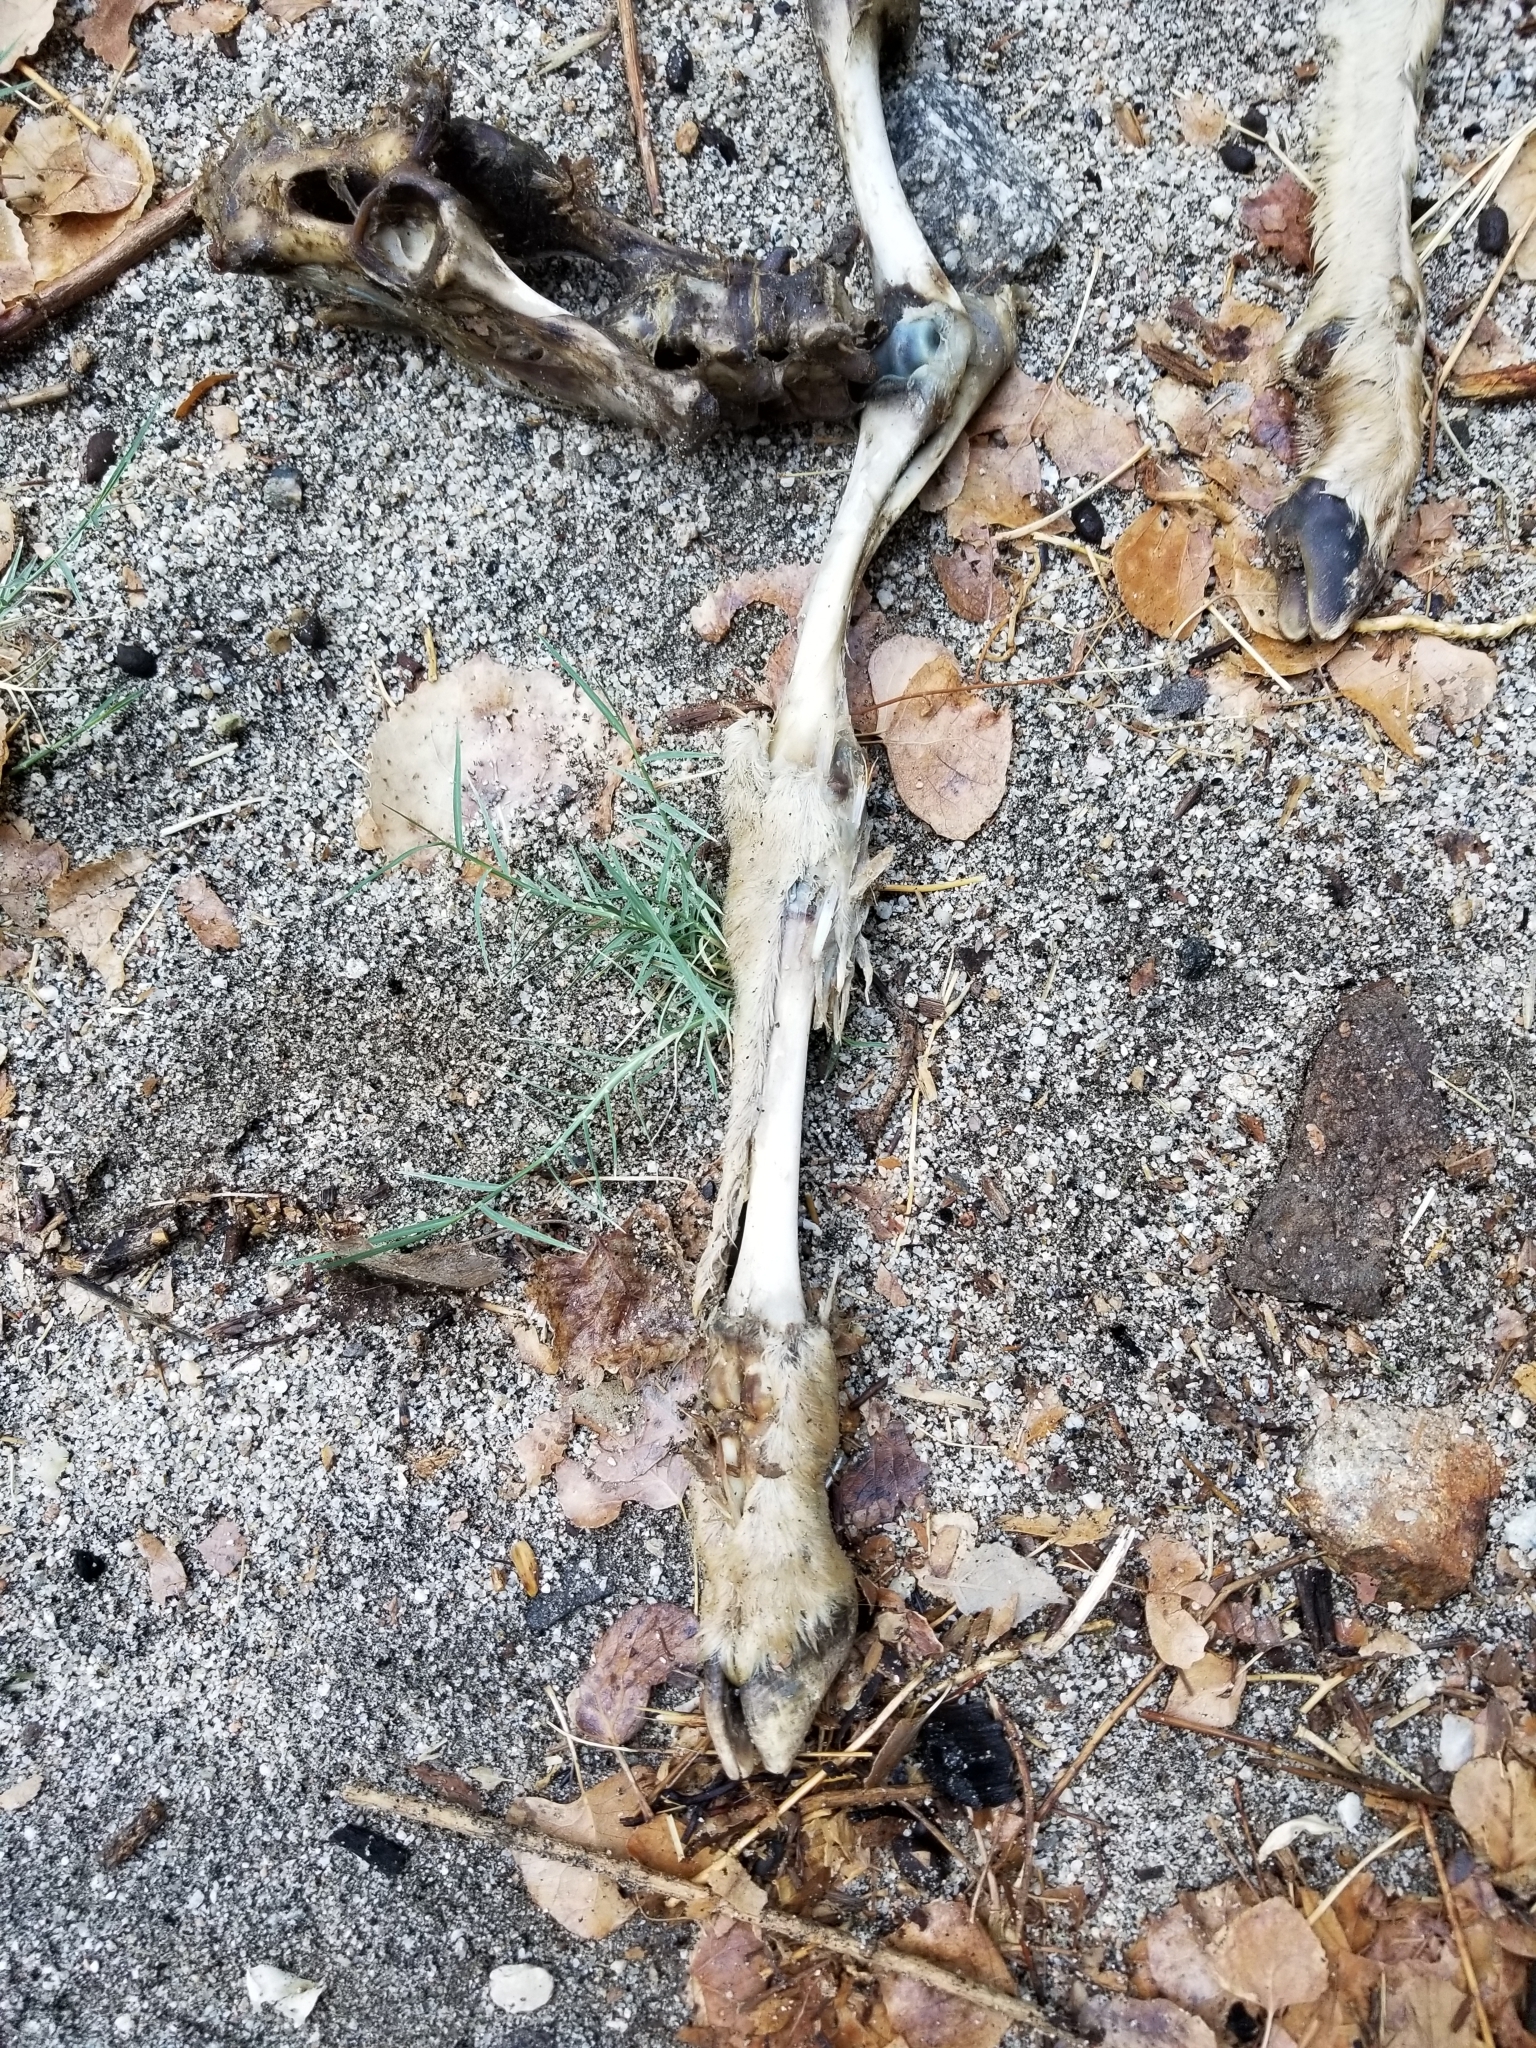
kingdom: Animalia
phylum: Chordata
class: Mammalia
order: Artiodactyla
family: Bovidae
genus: Ovis
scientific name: Ovis canadensis
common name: Bighorn sheep
